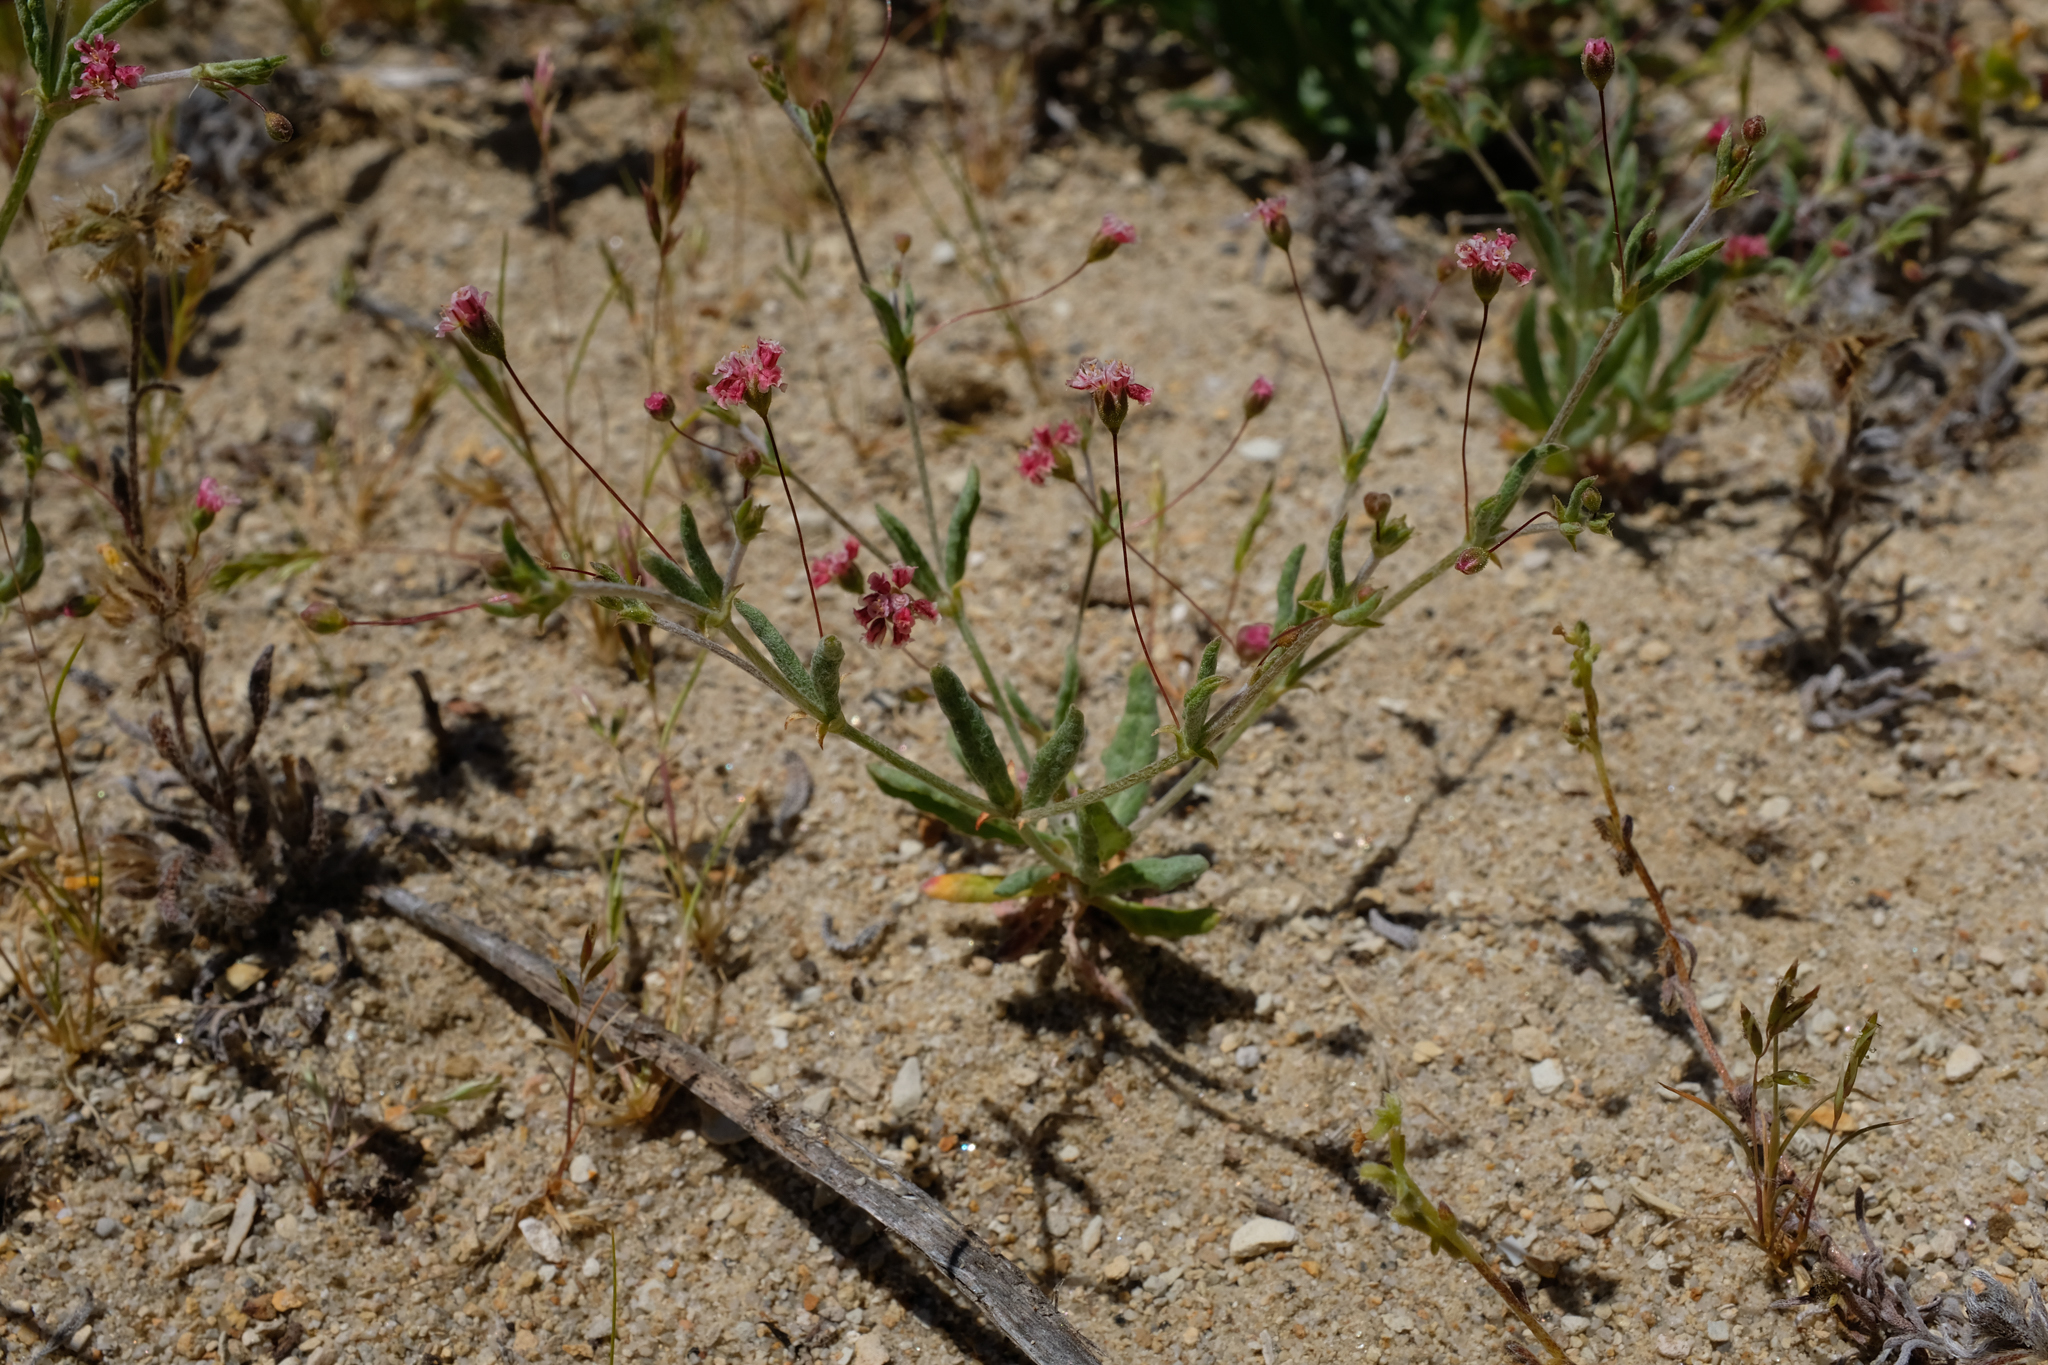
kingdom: Plantae
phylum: Tracheophyta
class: Magnoliopsida
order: Caryophyllales
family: Polygonaceae
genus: Eriogonum
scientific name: Eriogonum gracillimum
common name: Rose-and-white wild buckwheat
